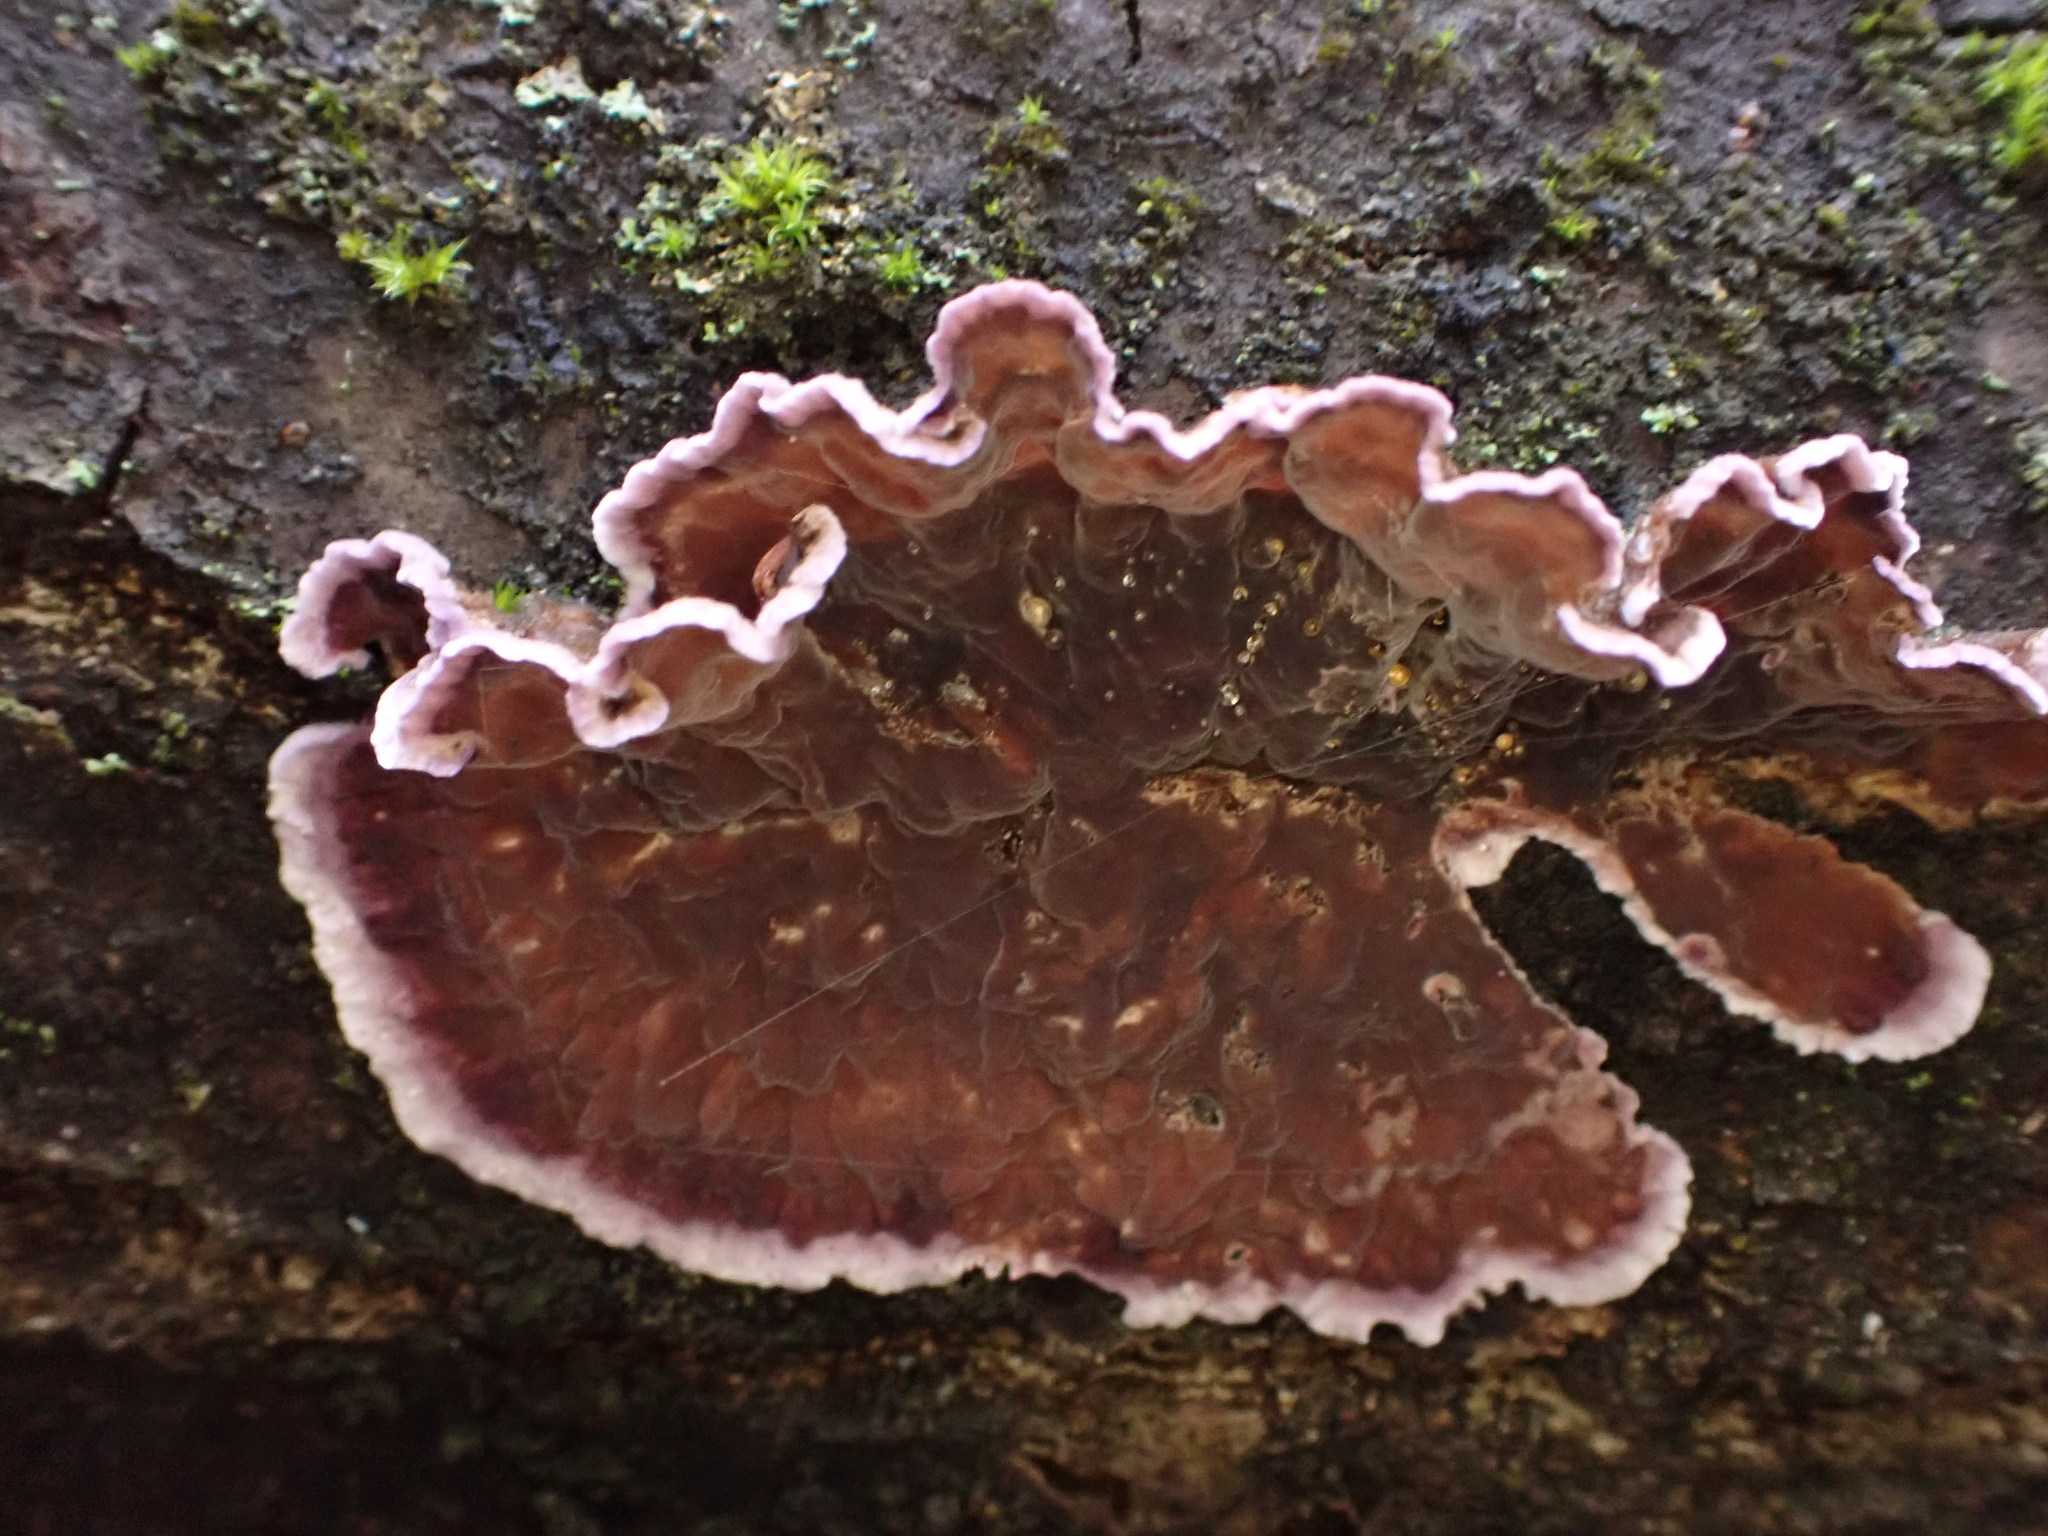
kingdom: Fungi
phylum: Basidiomycota
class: Agaricomycetes
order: Agaricales
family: Cyphellaceae
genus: Chondrostereum
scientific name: Chondrostereum purpureum
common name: Silver leaf disease
